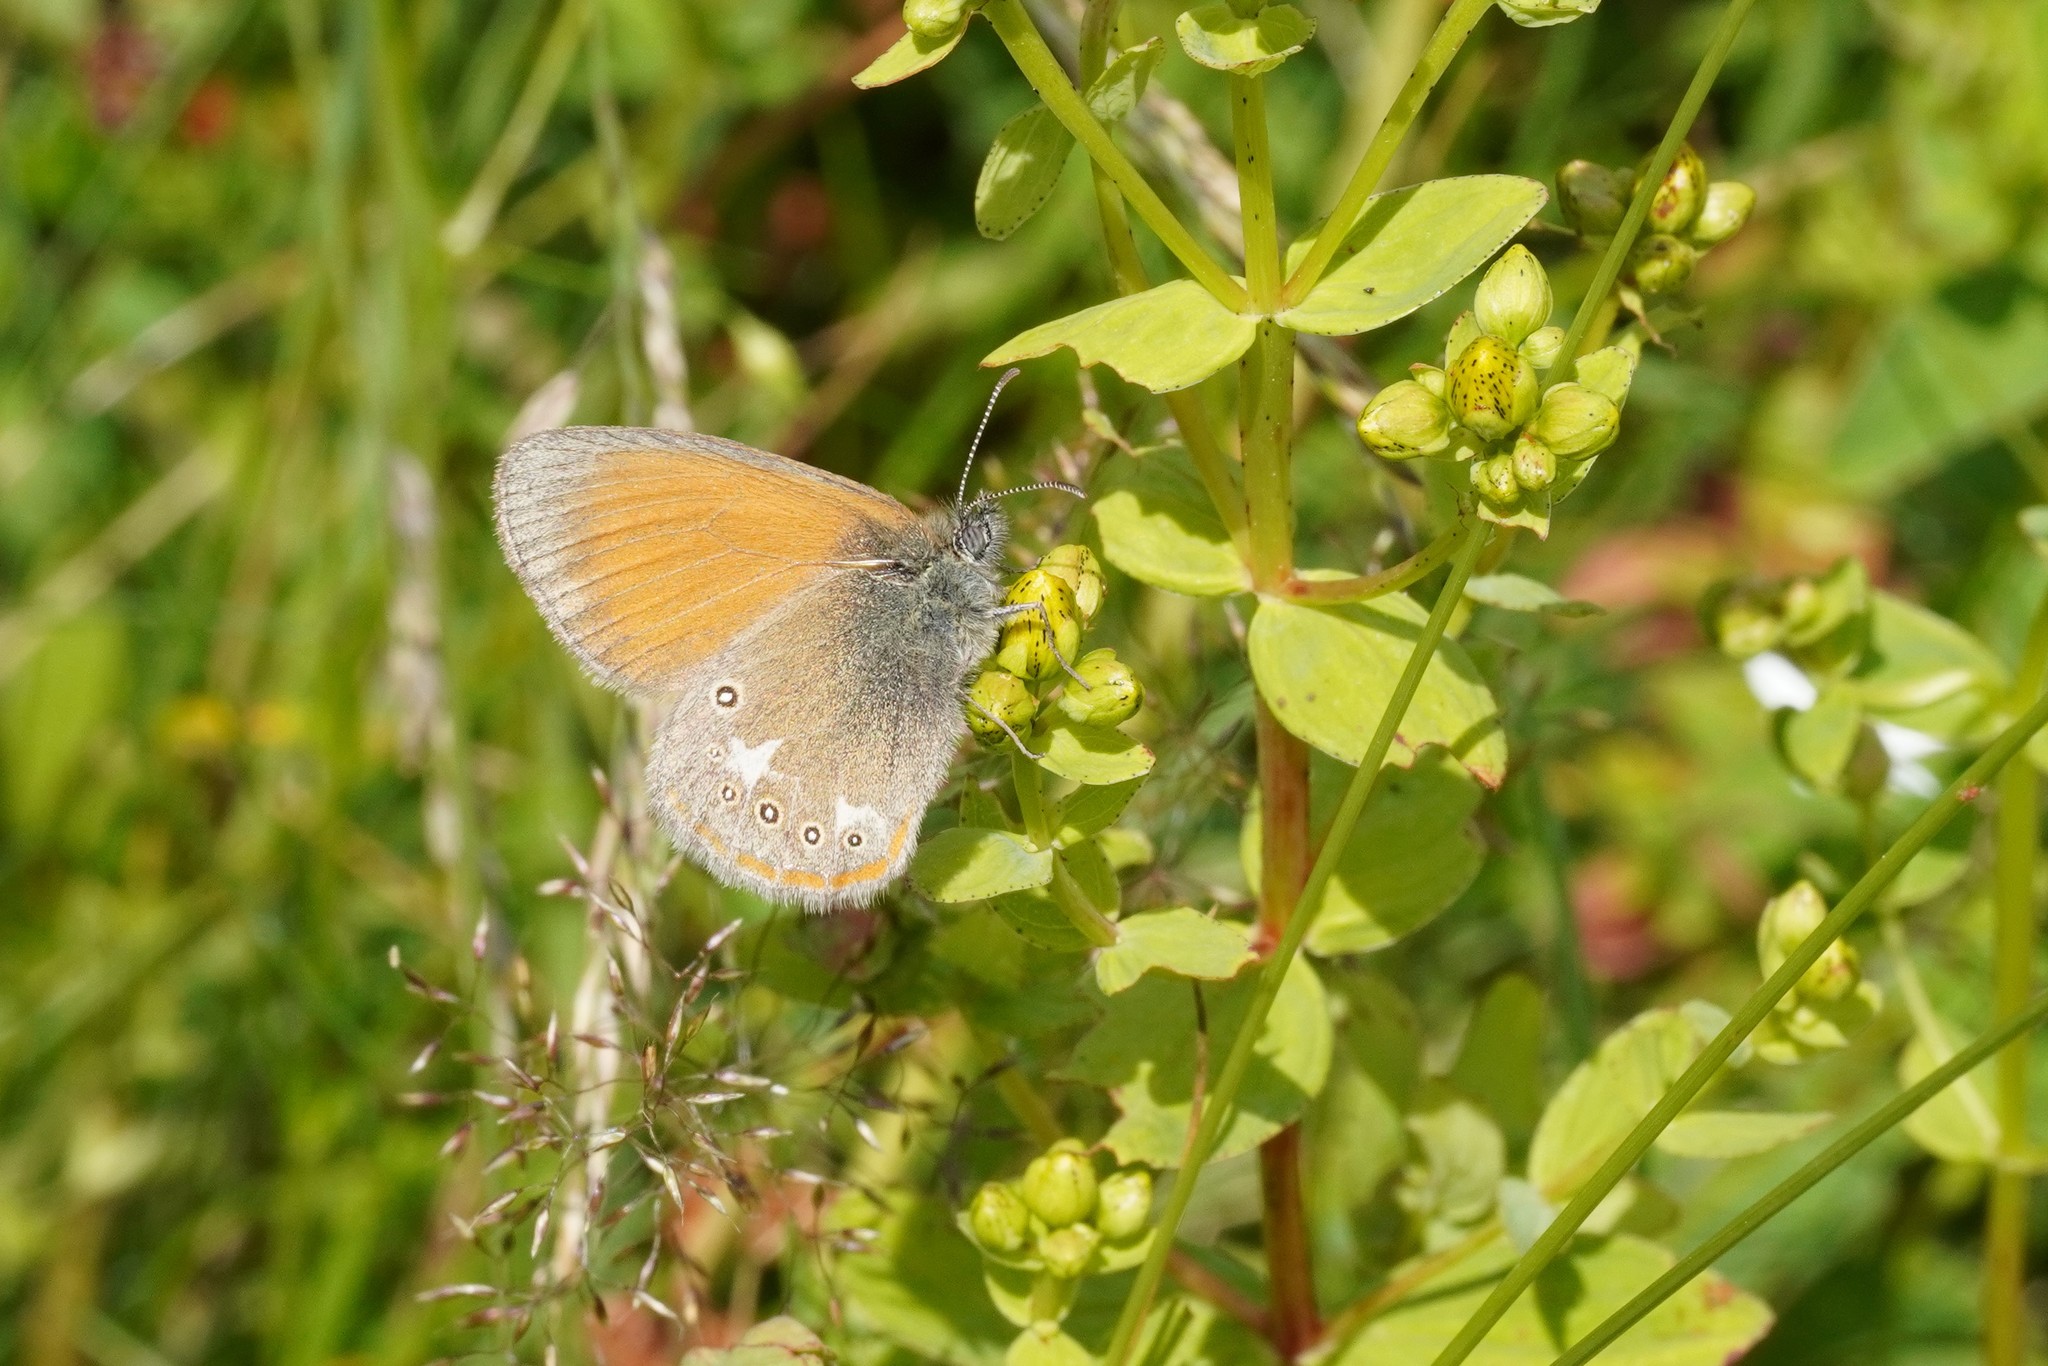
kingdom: Animalia
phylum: Arthropoda
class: Insecta
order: Lepidoptera
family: Nymphalidae
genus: Coenonympha
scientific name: Coenonympha iphis
